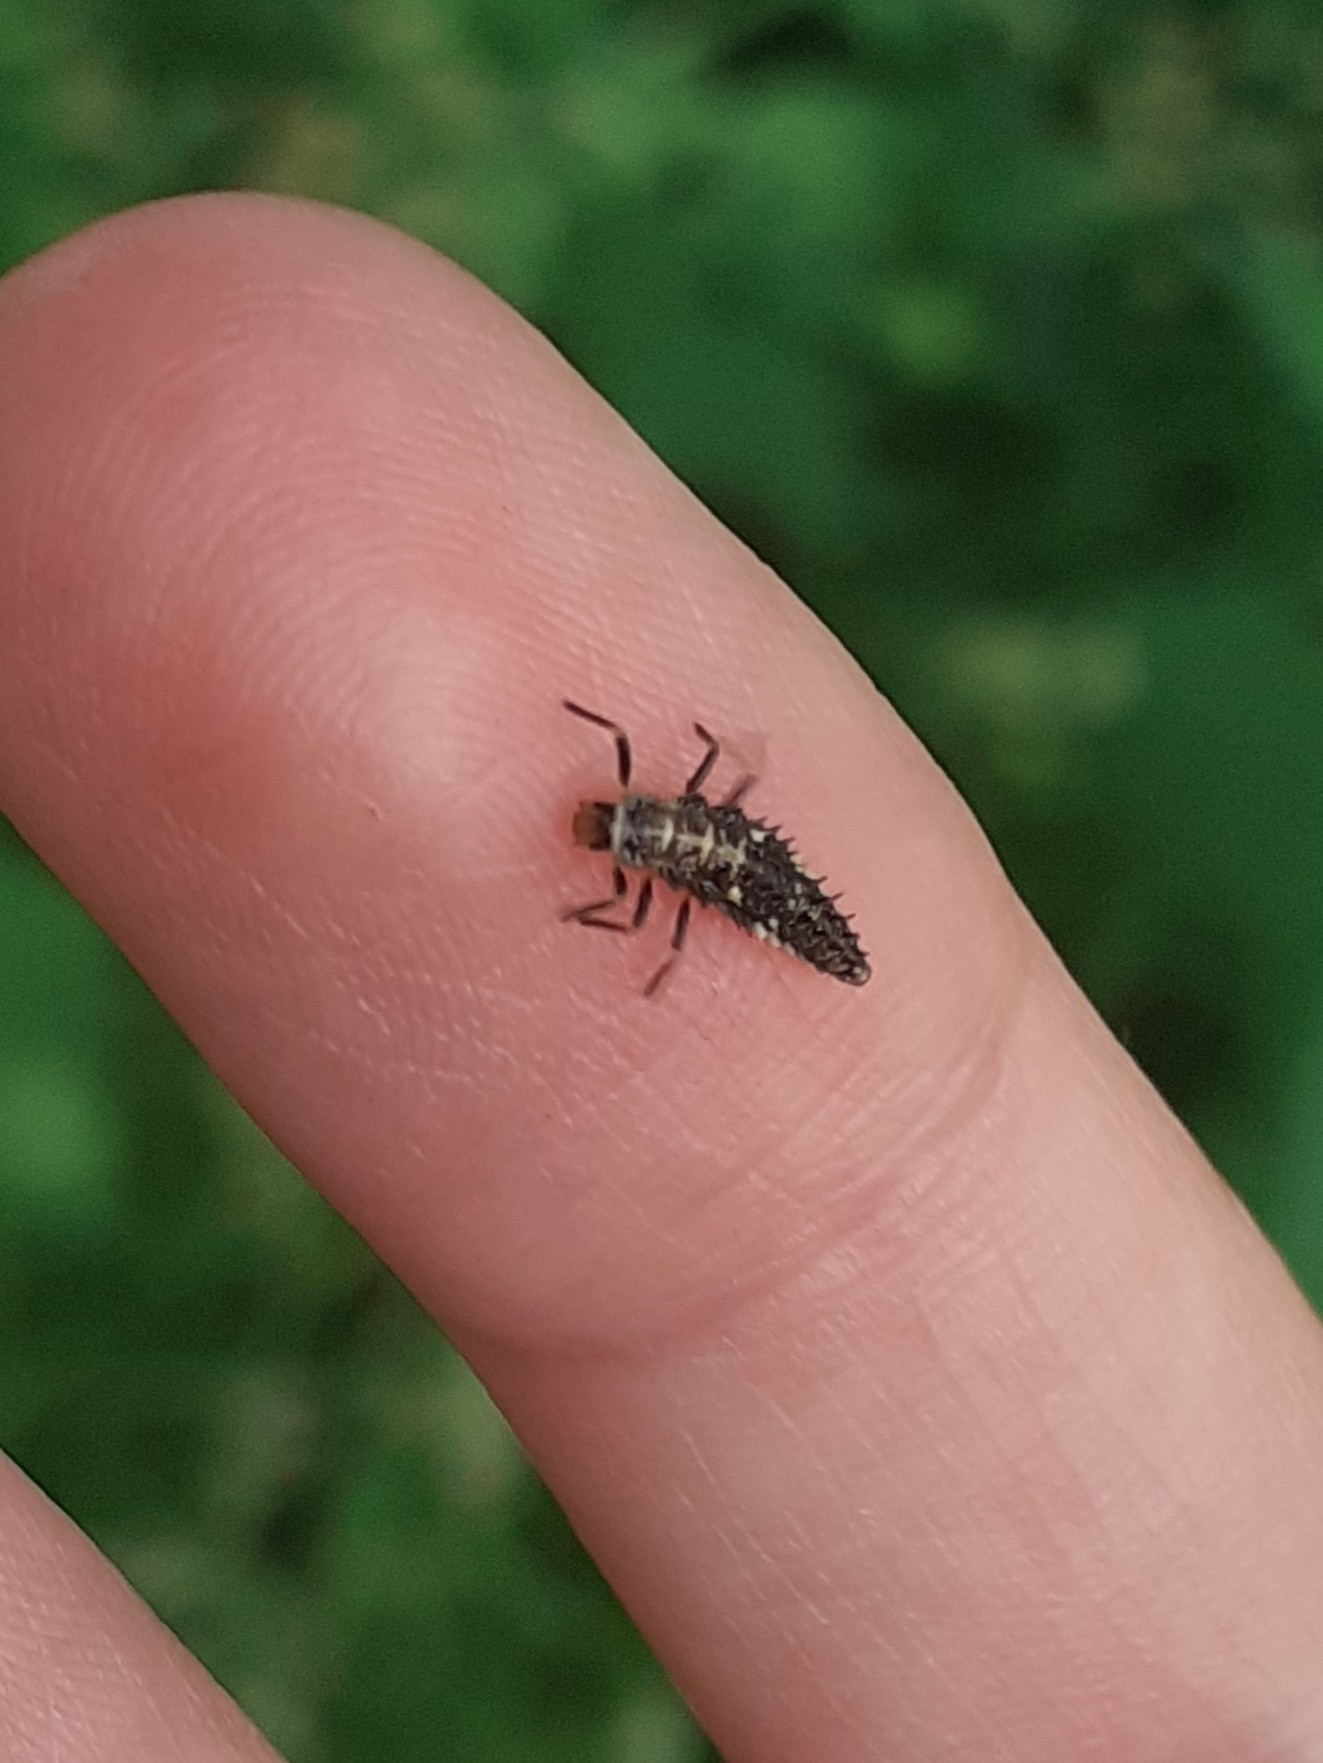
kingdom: Animalia
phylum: Arthropoda
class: Insecta
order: Coleoptera
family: Coccinellidae
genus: Calvia
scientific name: Calvia quatuordecimguttata
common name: Cream-spot ladybird
